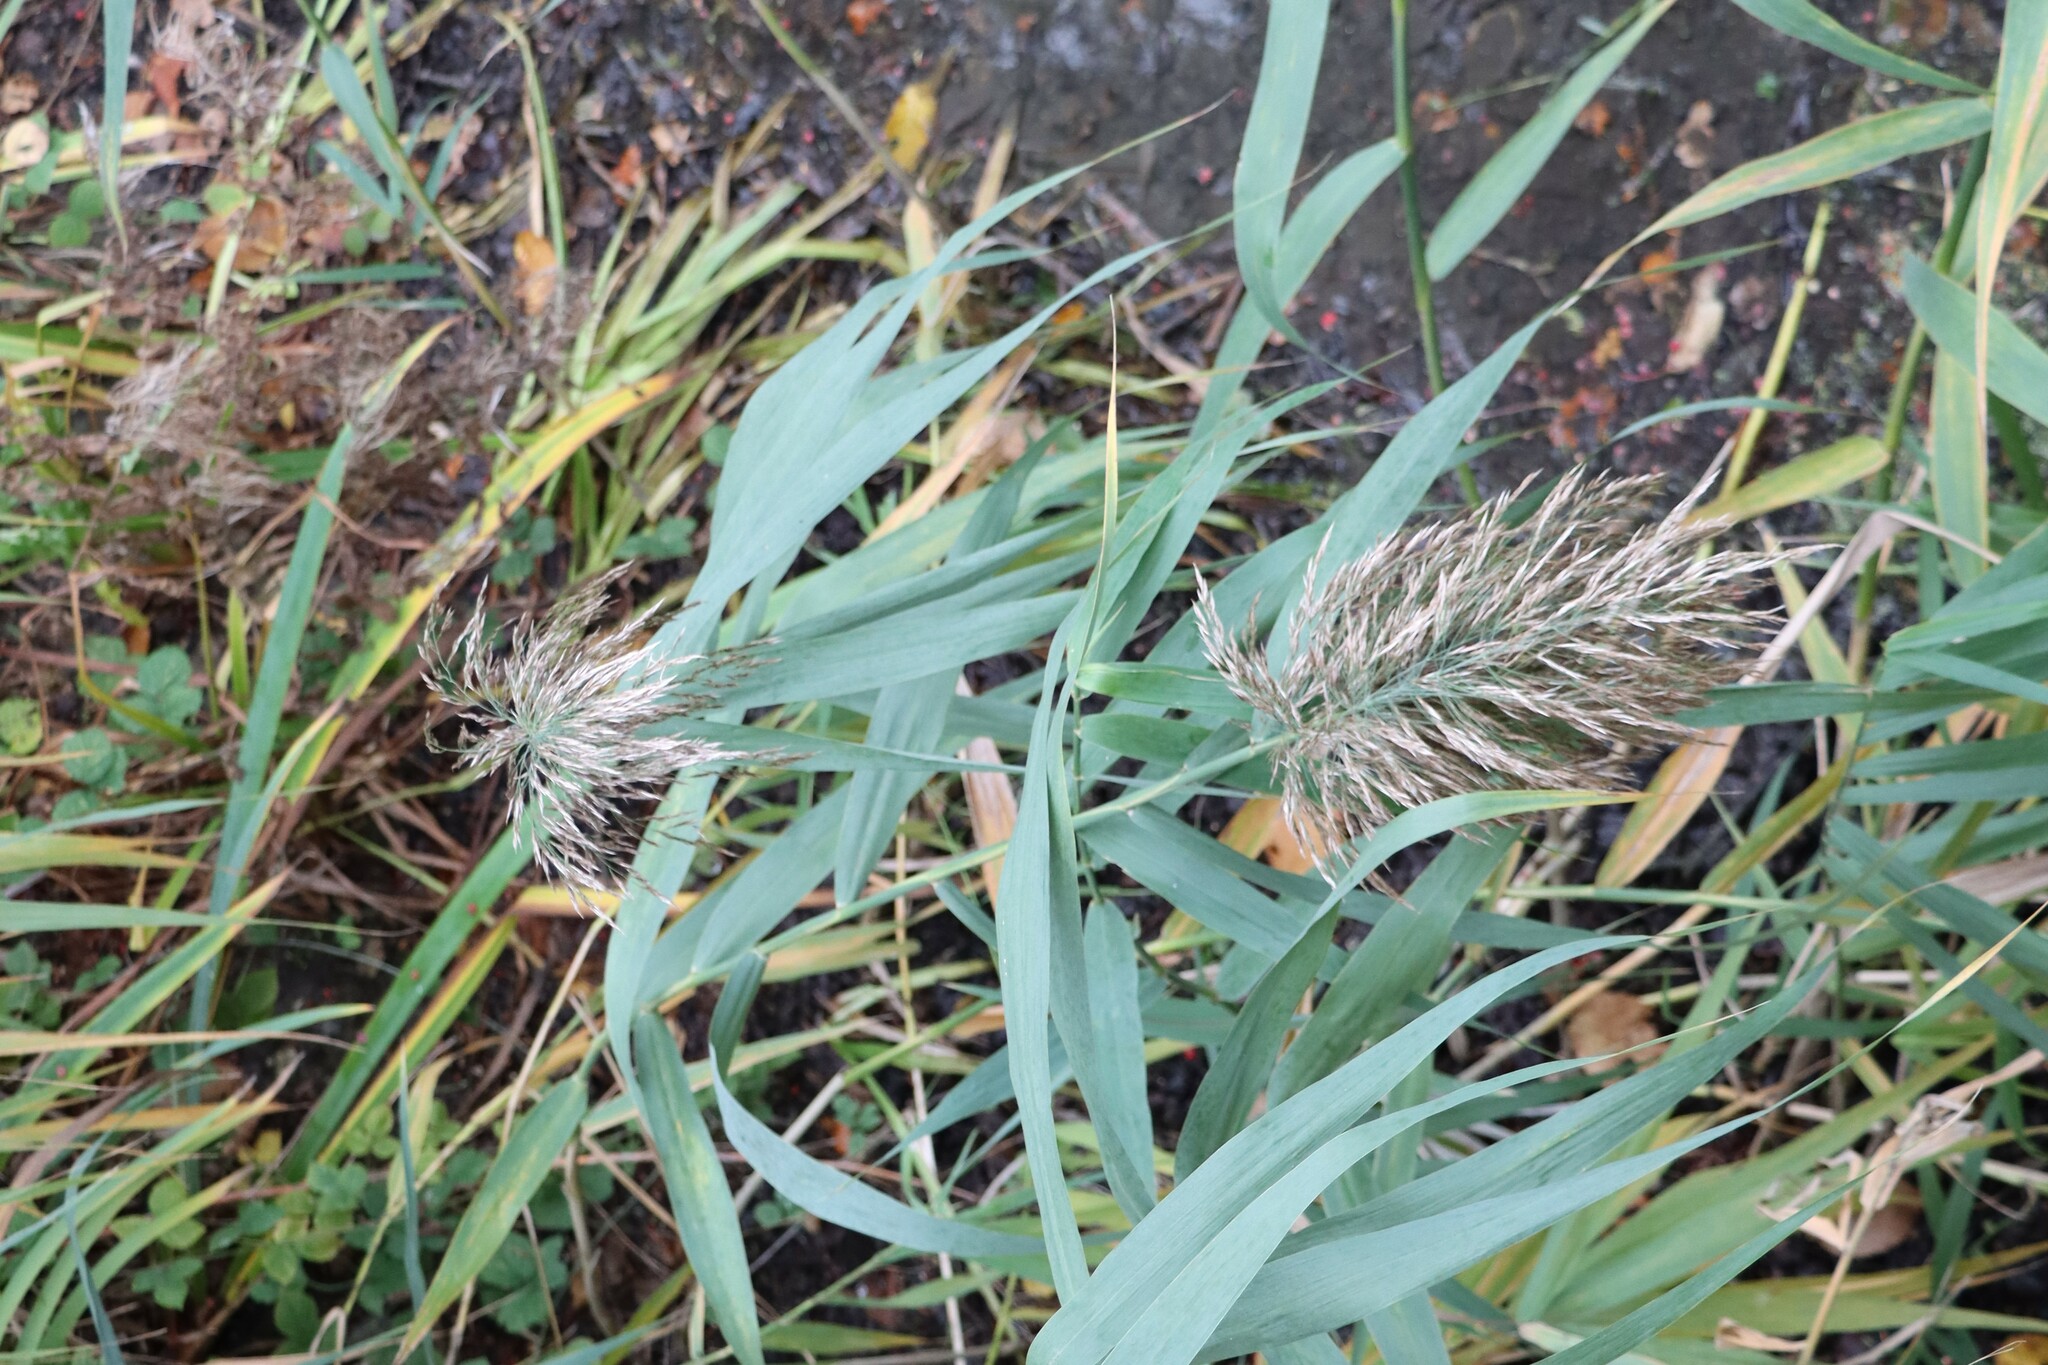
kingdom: Plantae
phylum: Tracheophyta
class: Liliopsida
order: Poales
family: Poaceae
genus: Phragmites
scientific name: Phragmites australis
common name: Common reed
